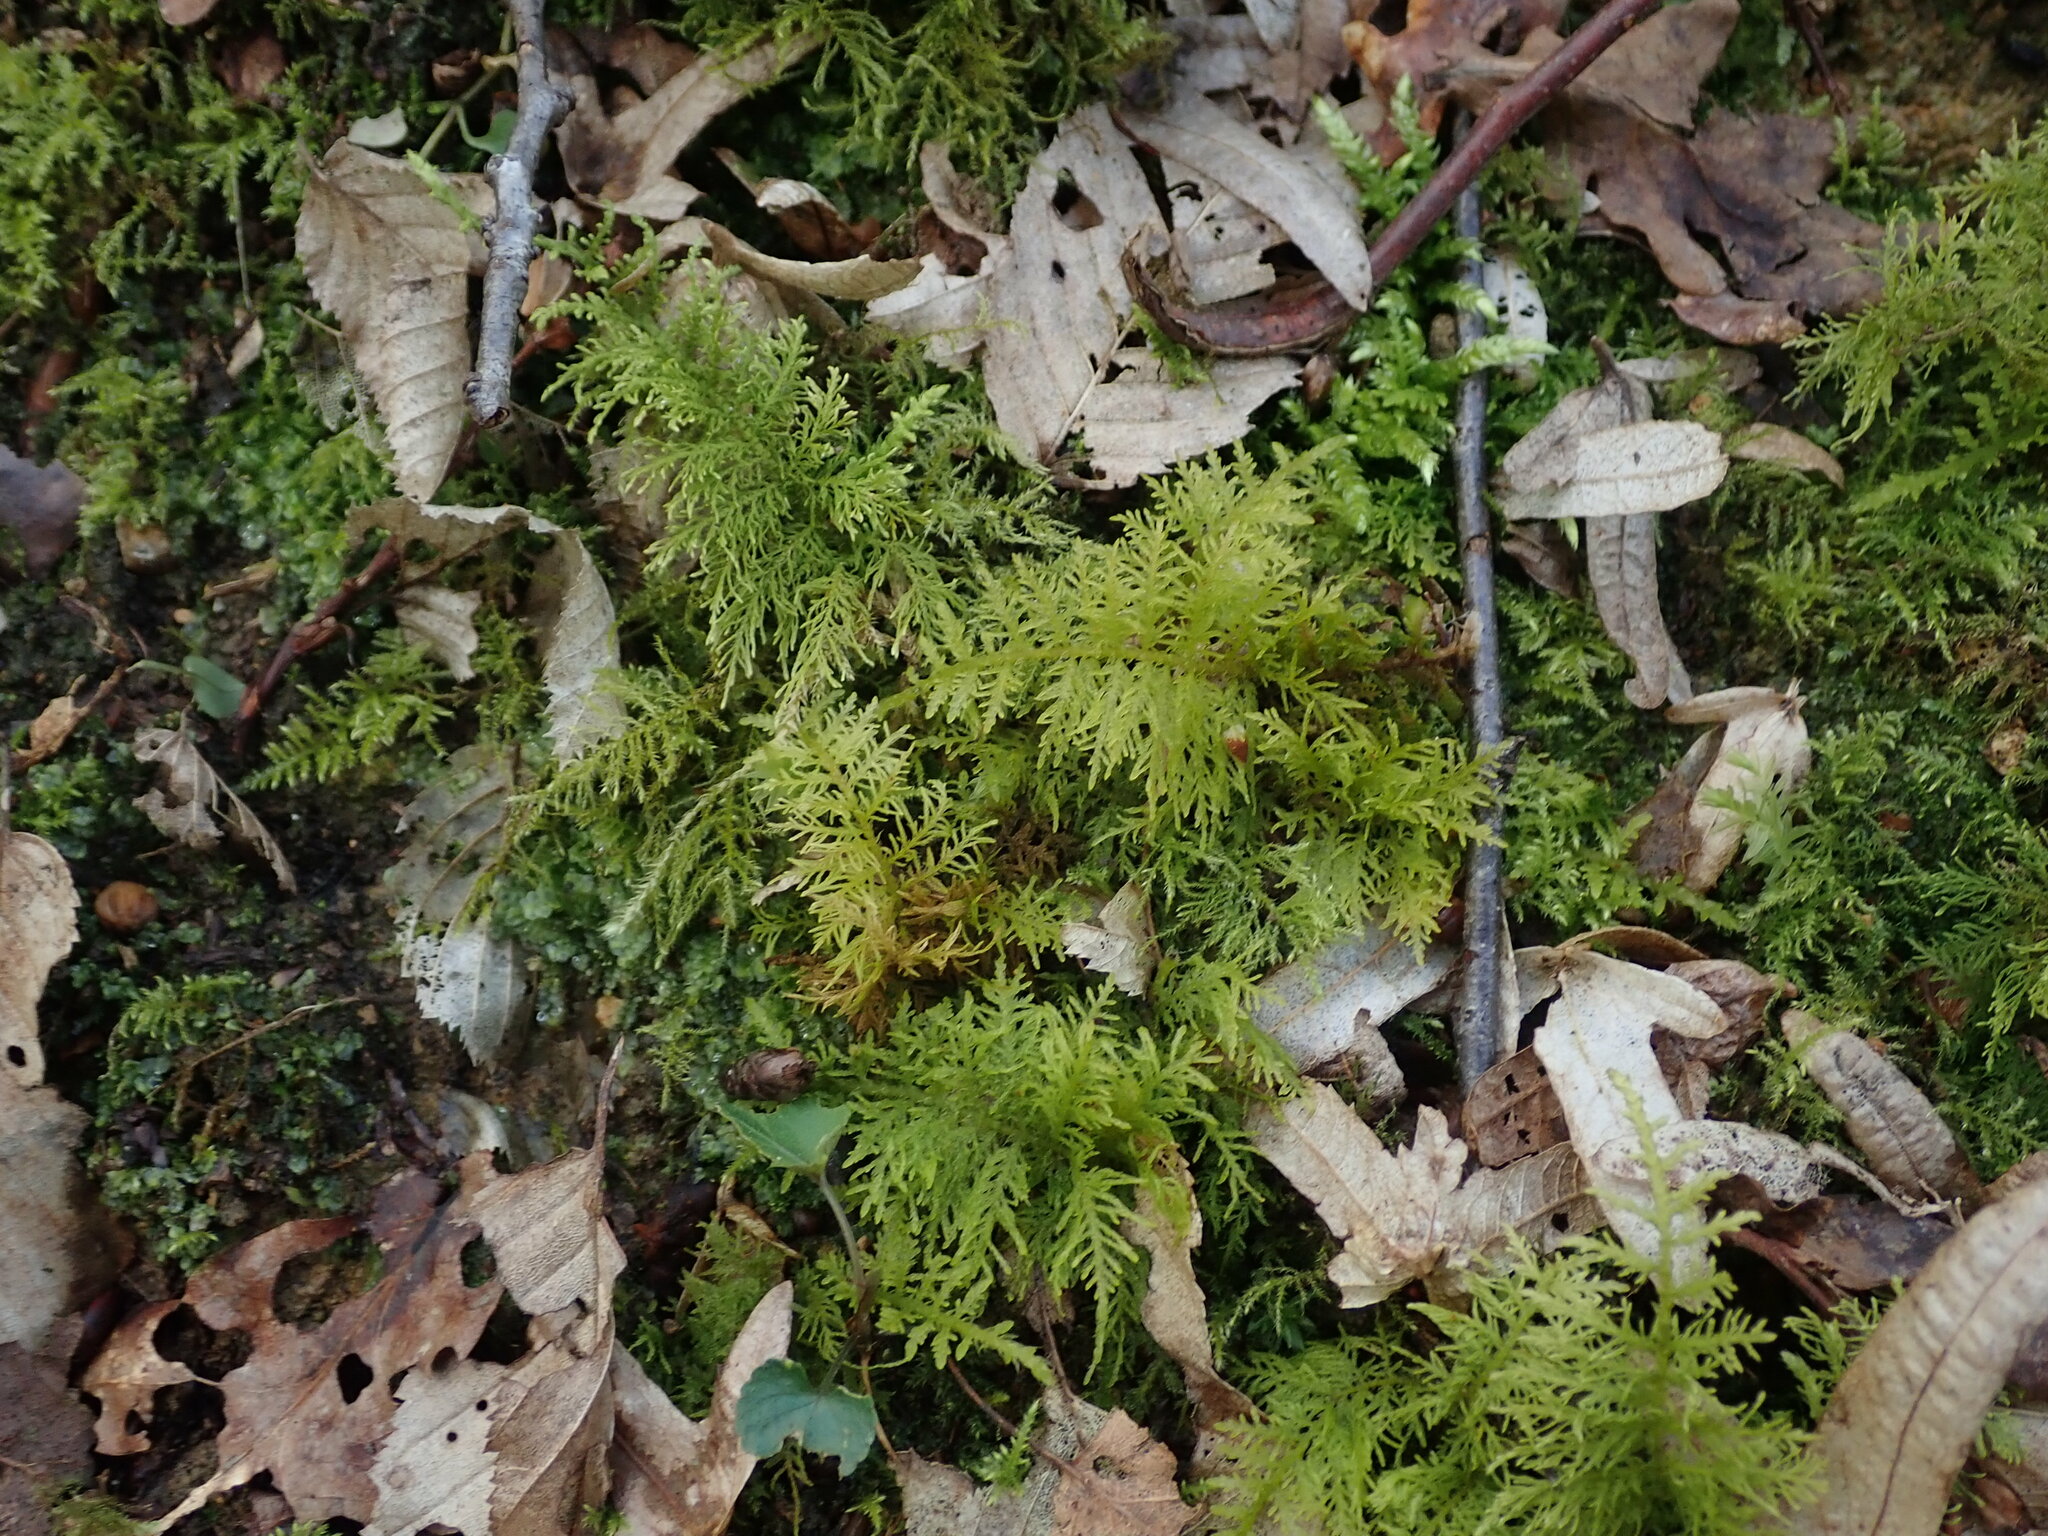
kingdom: Plantae
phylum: Bryophyta
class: Bryopsida
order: Hypnales
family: Thuidiaceae
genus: Thuidium
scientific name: Thuidium tamariscinum
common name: Common tamarisk-moss
